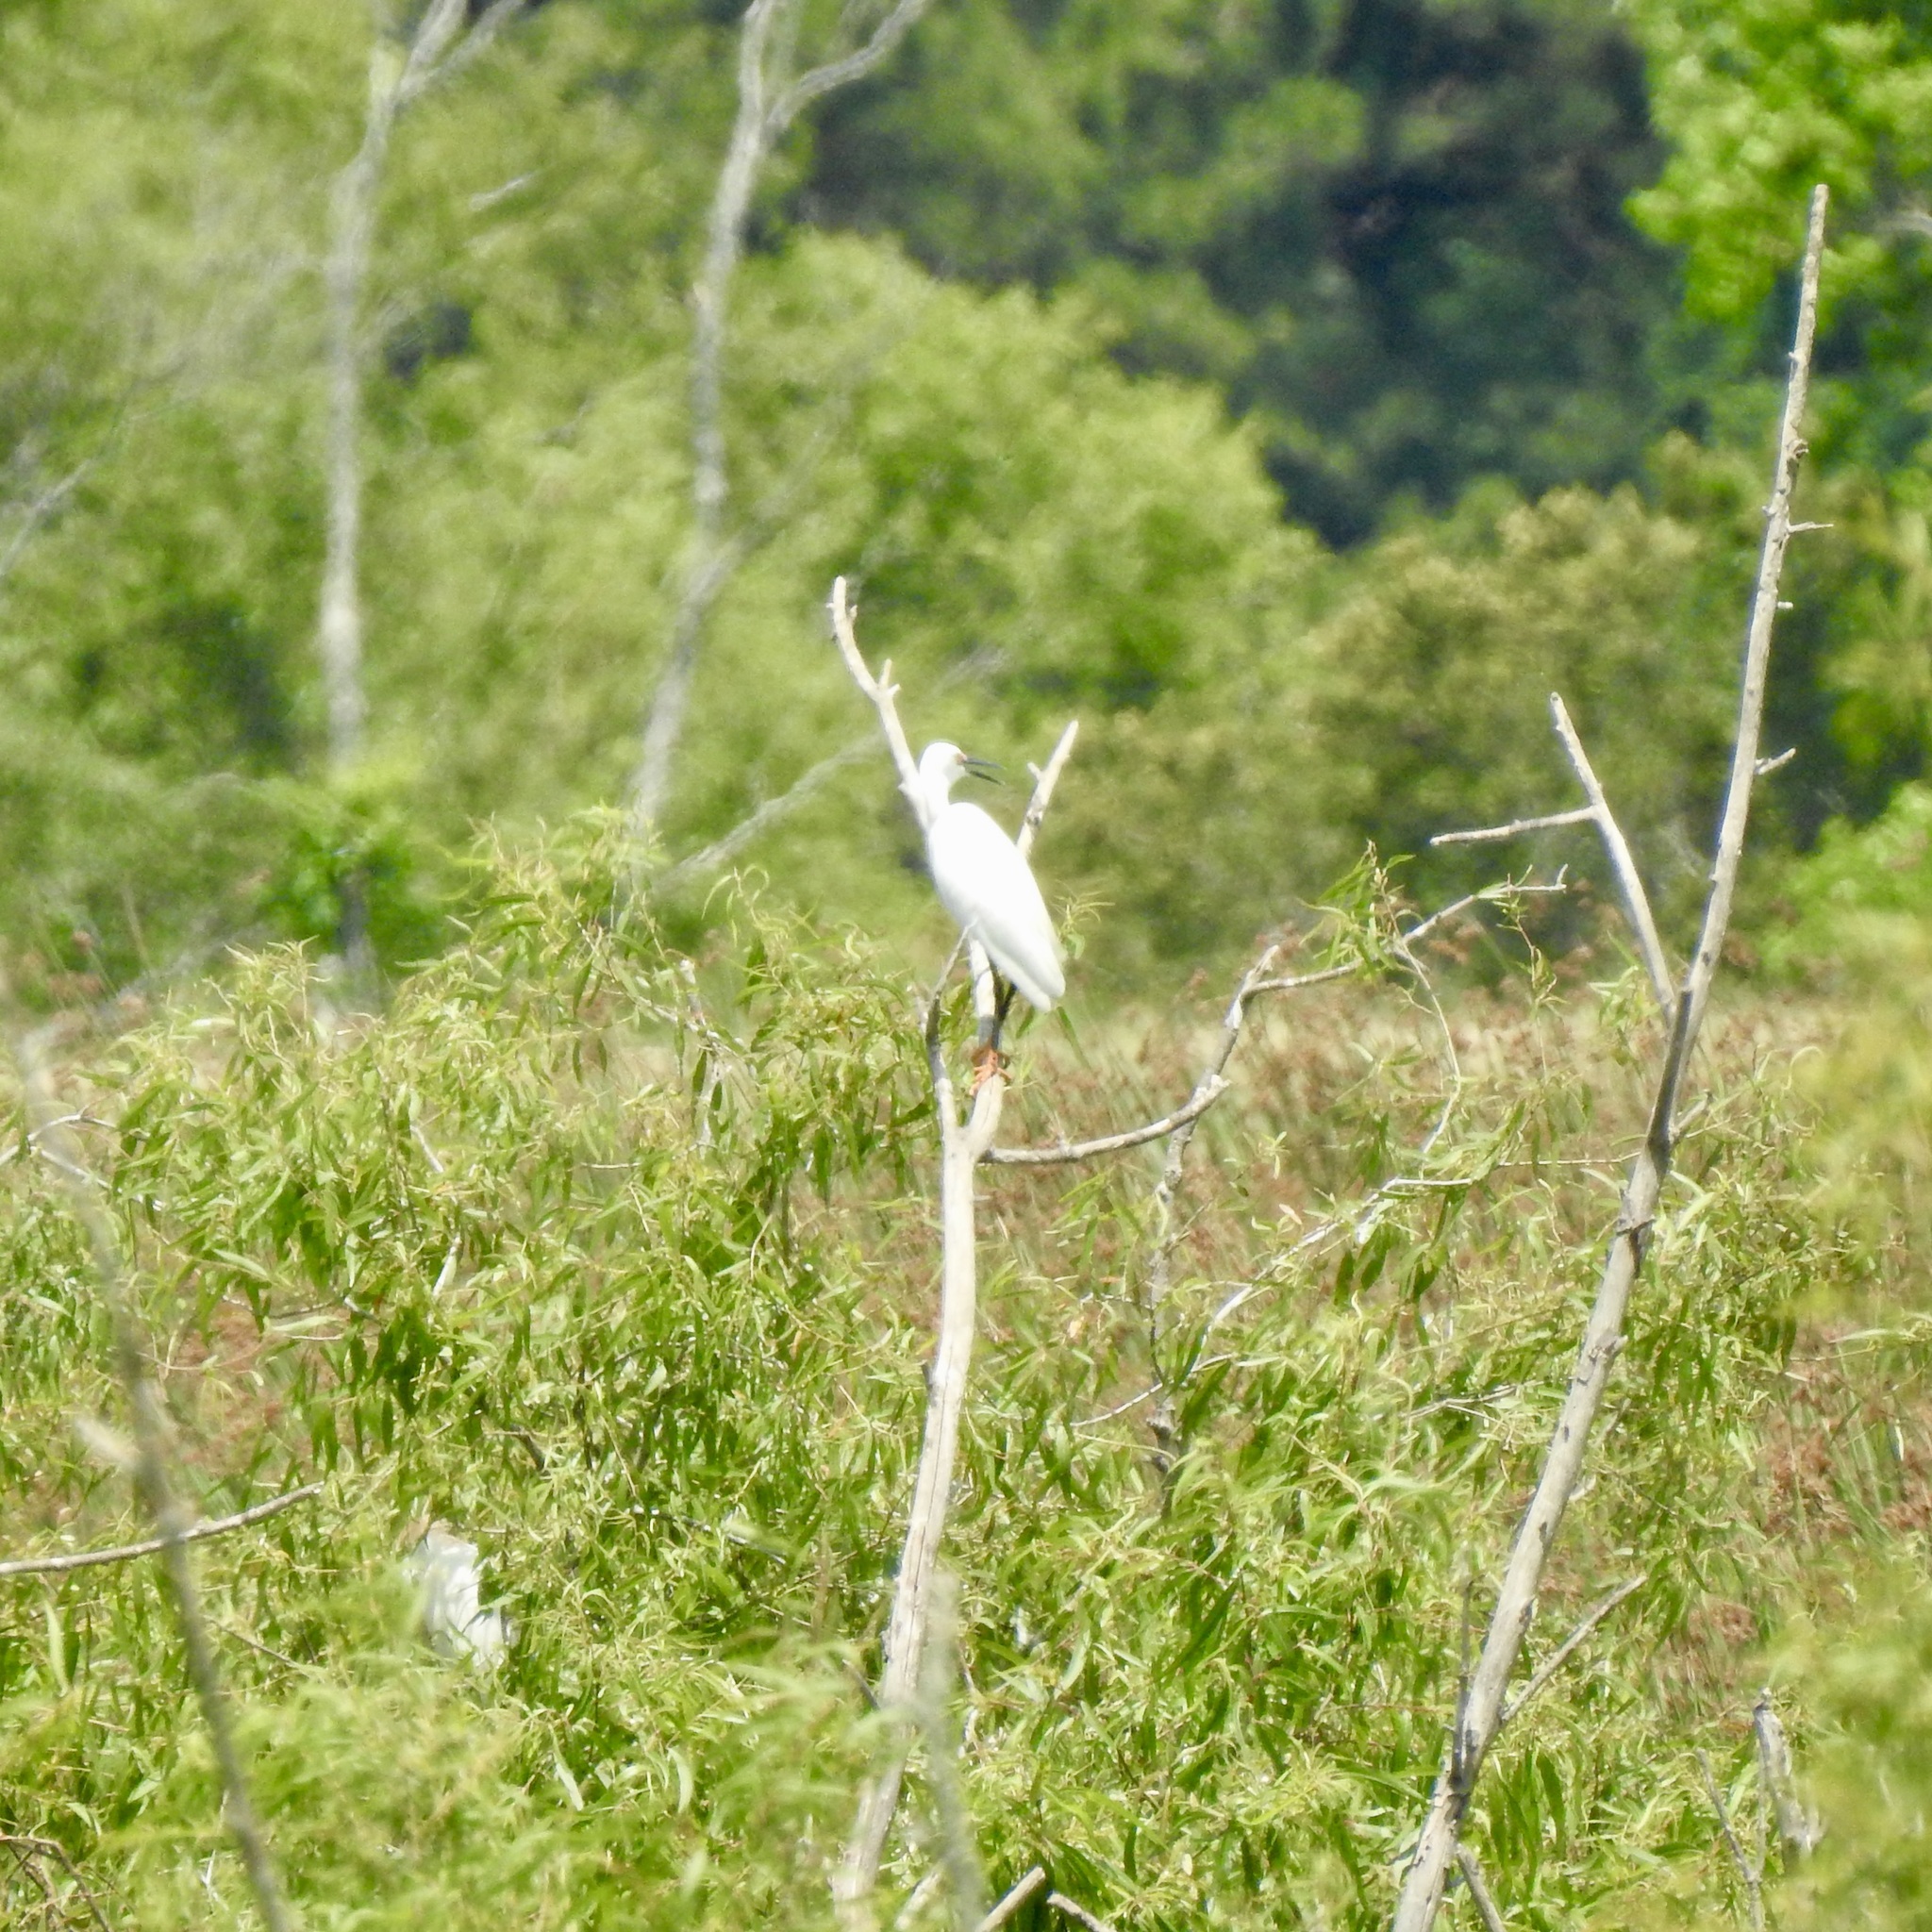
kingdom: Animalia
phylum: Chordata
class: Aves
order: Pelecaniformes
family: Ardeidae
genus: Egretta
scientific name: Egretta thula
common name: Snowy egret
